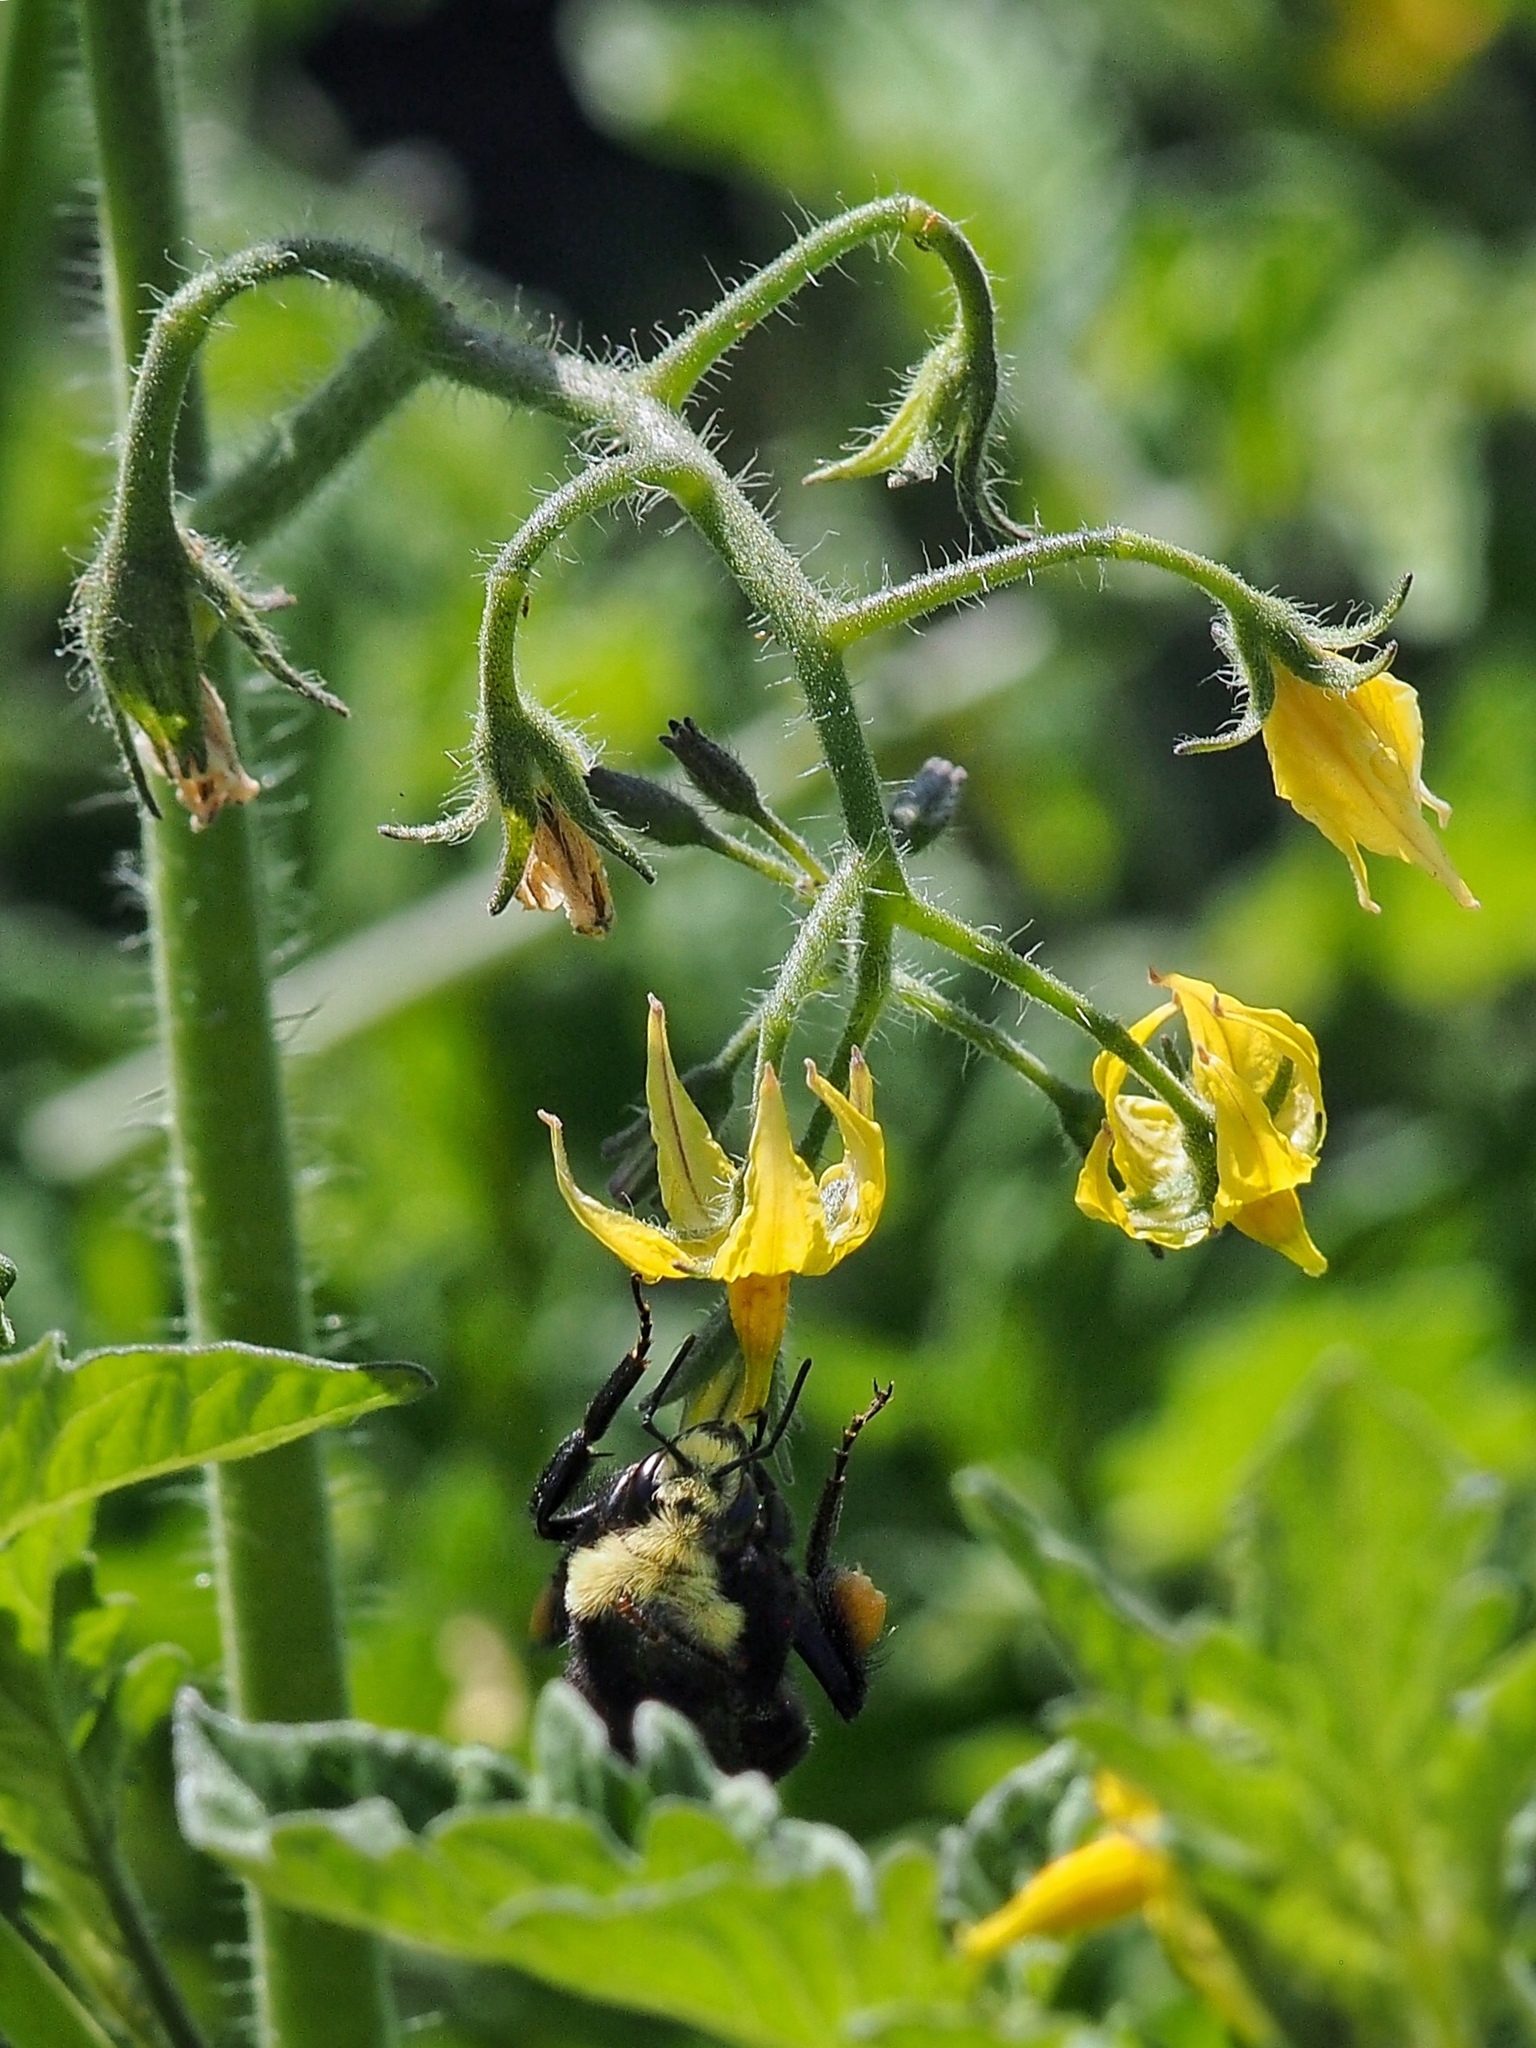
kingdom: Animalia
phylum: Arthropoda
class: Insecta
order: Hymenoptera
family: Apidae
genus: Bombus
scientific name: Bombus vosnesenskii
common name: Vosnesensky bumble bee
